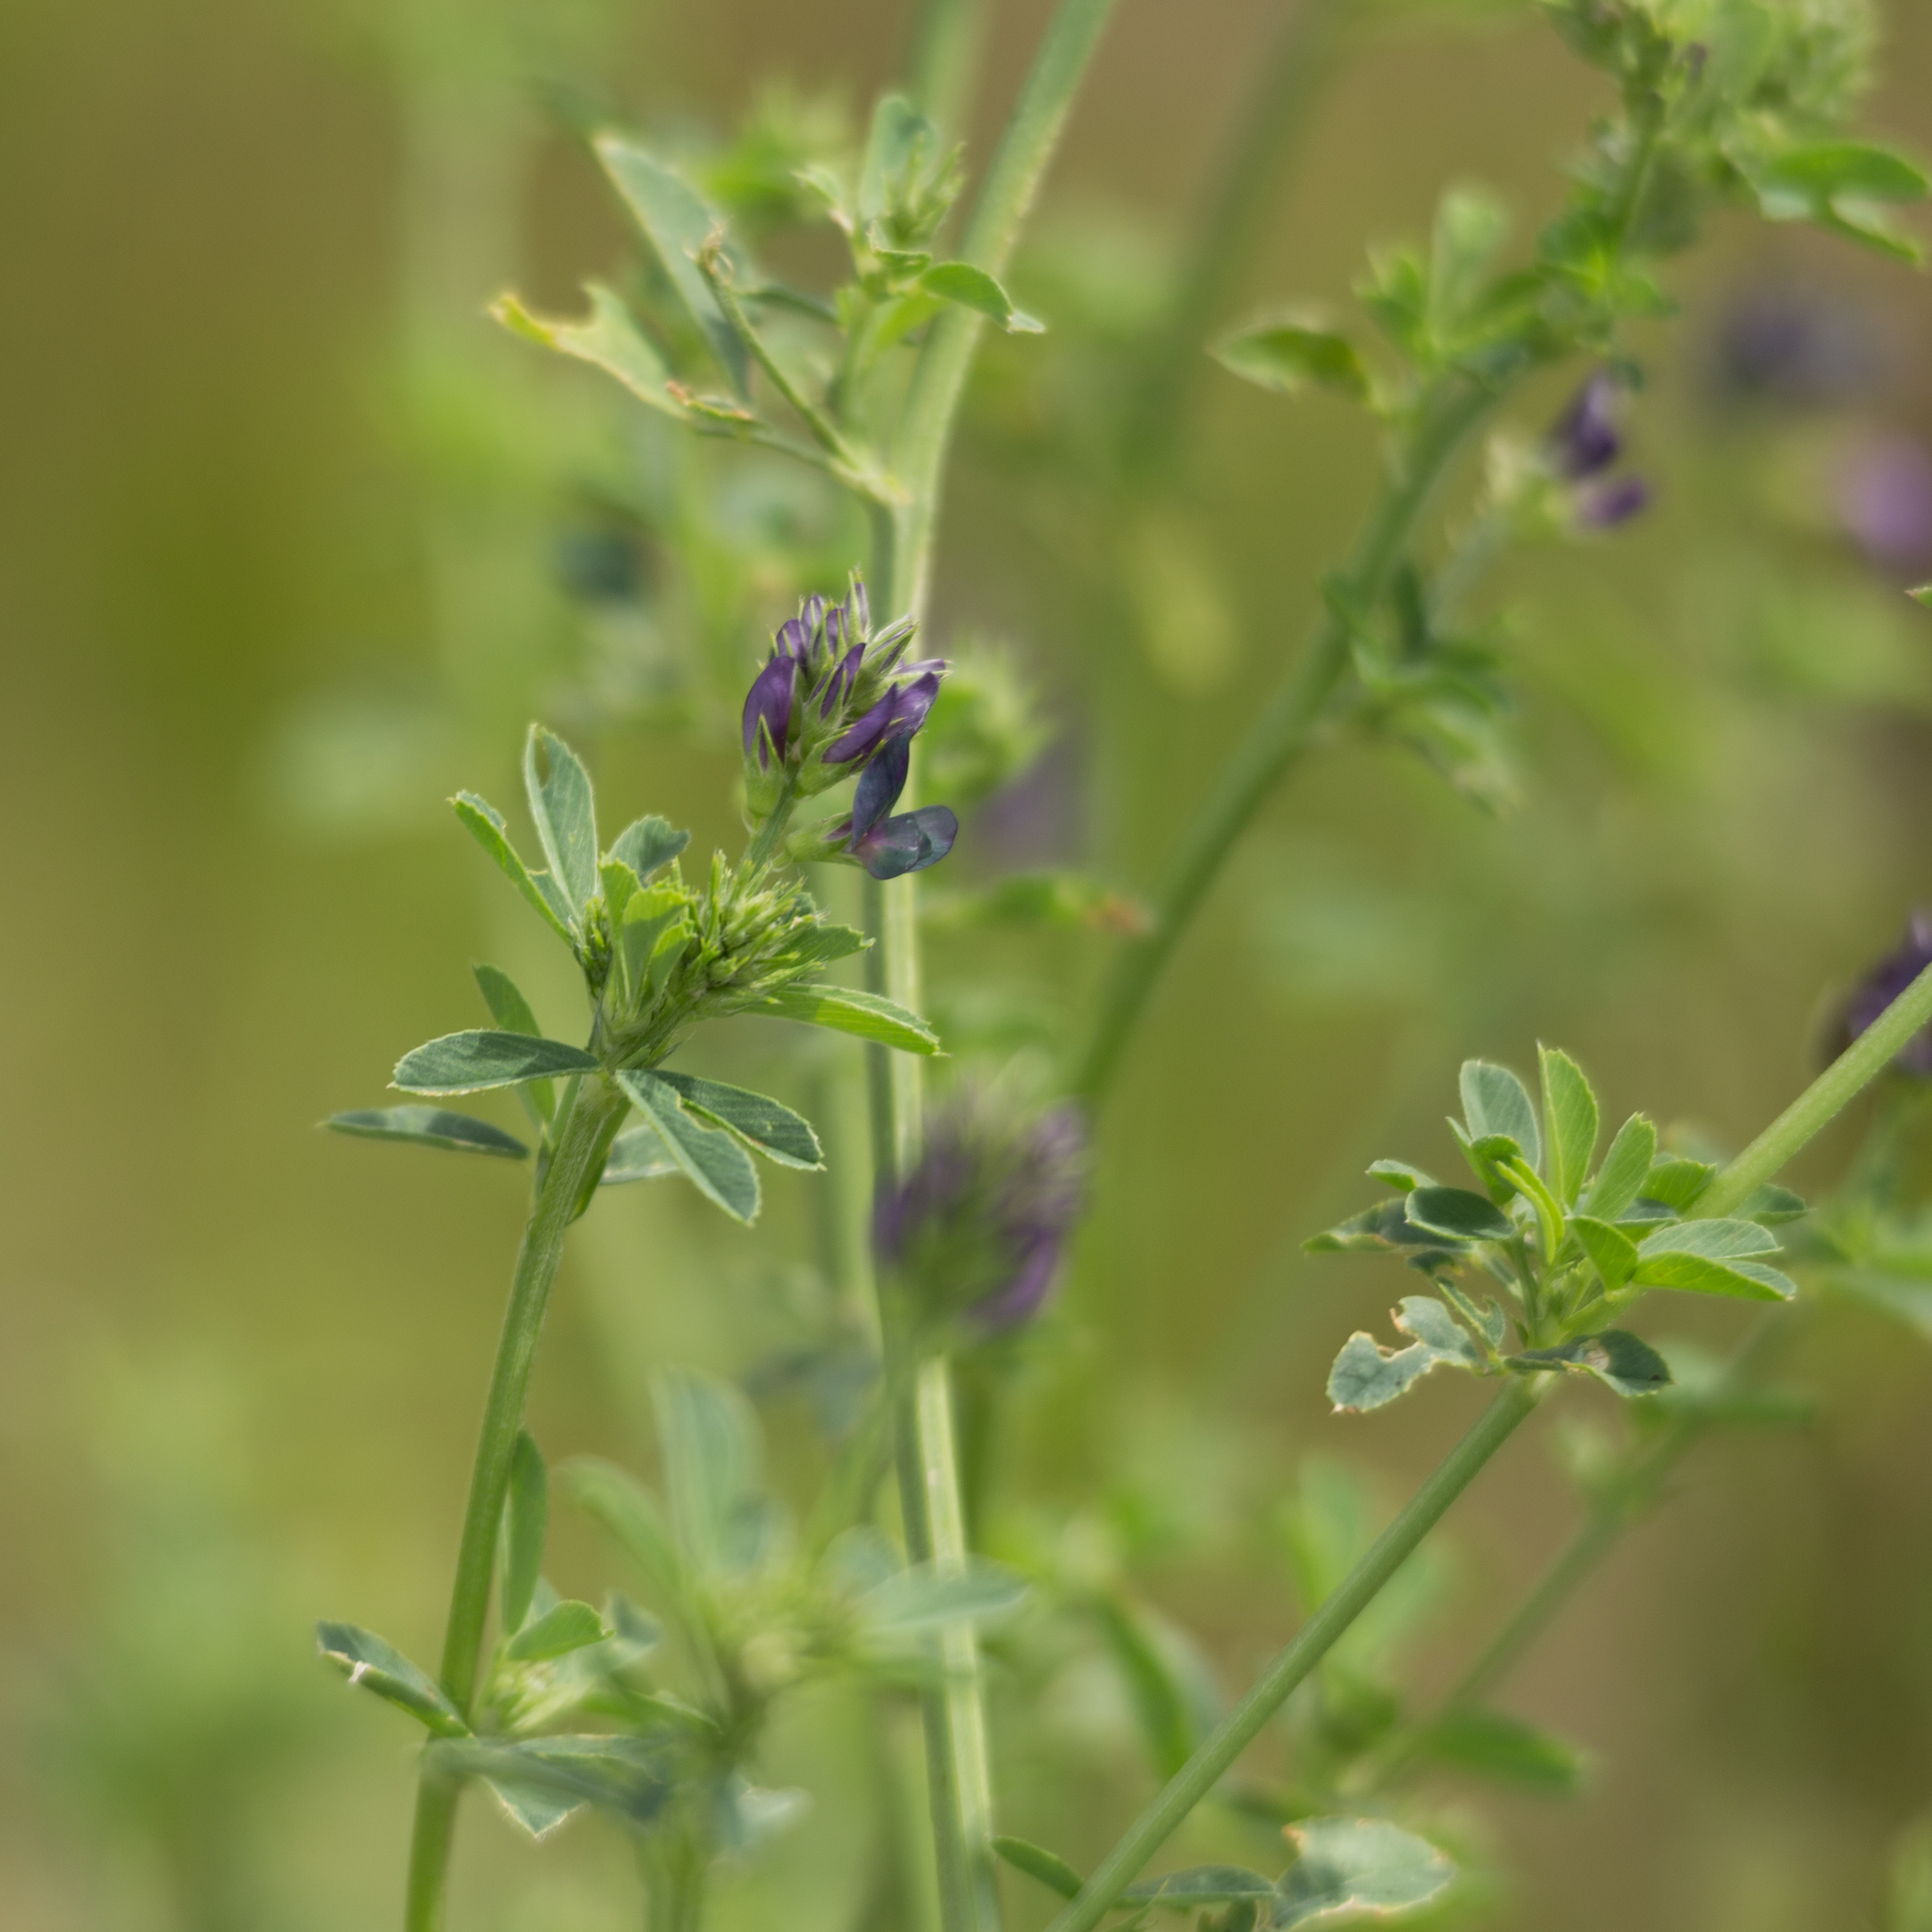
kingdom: Plantae
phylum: Tracheophyta
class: Magnoliopsida
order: Fabales
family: Fabaceae
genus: Medicago
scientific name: Medicago varia
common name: Sand lucerne
